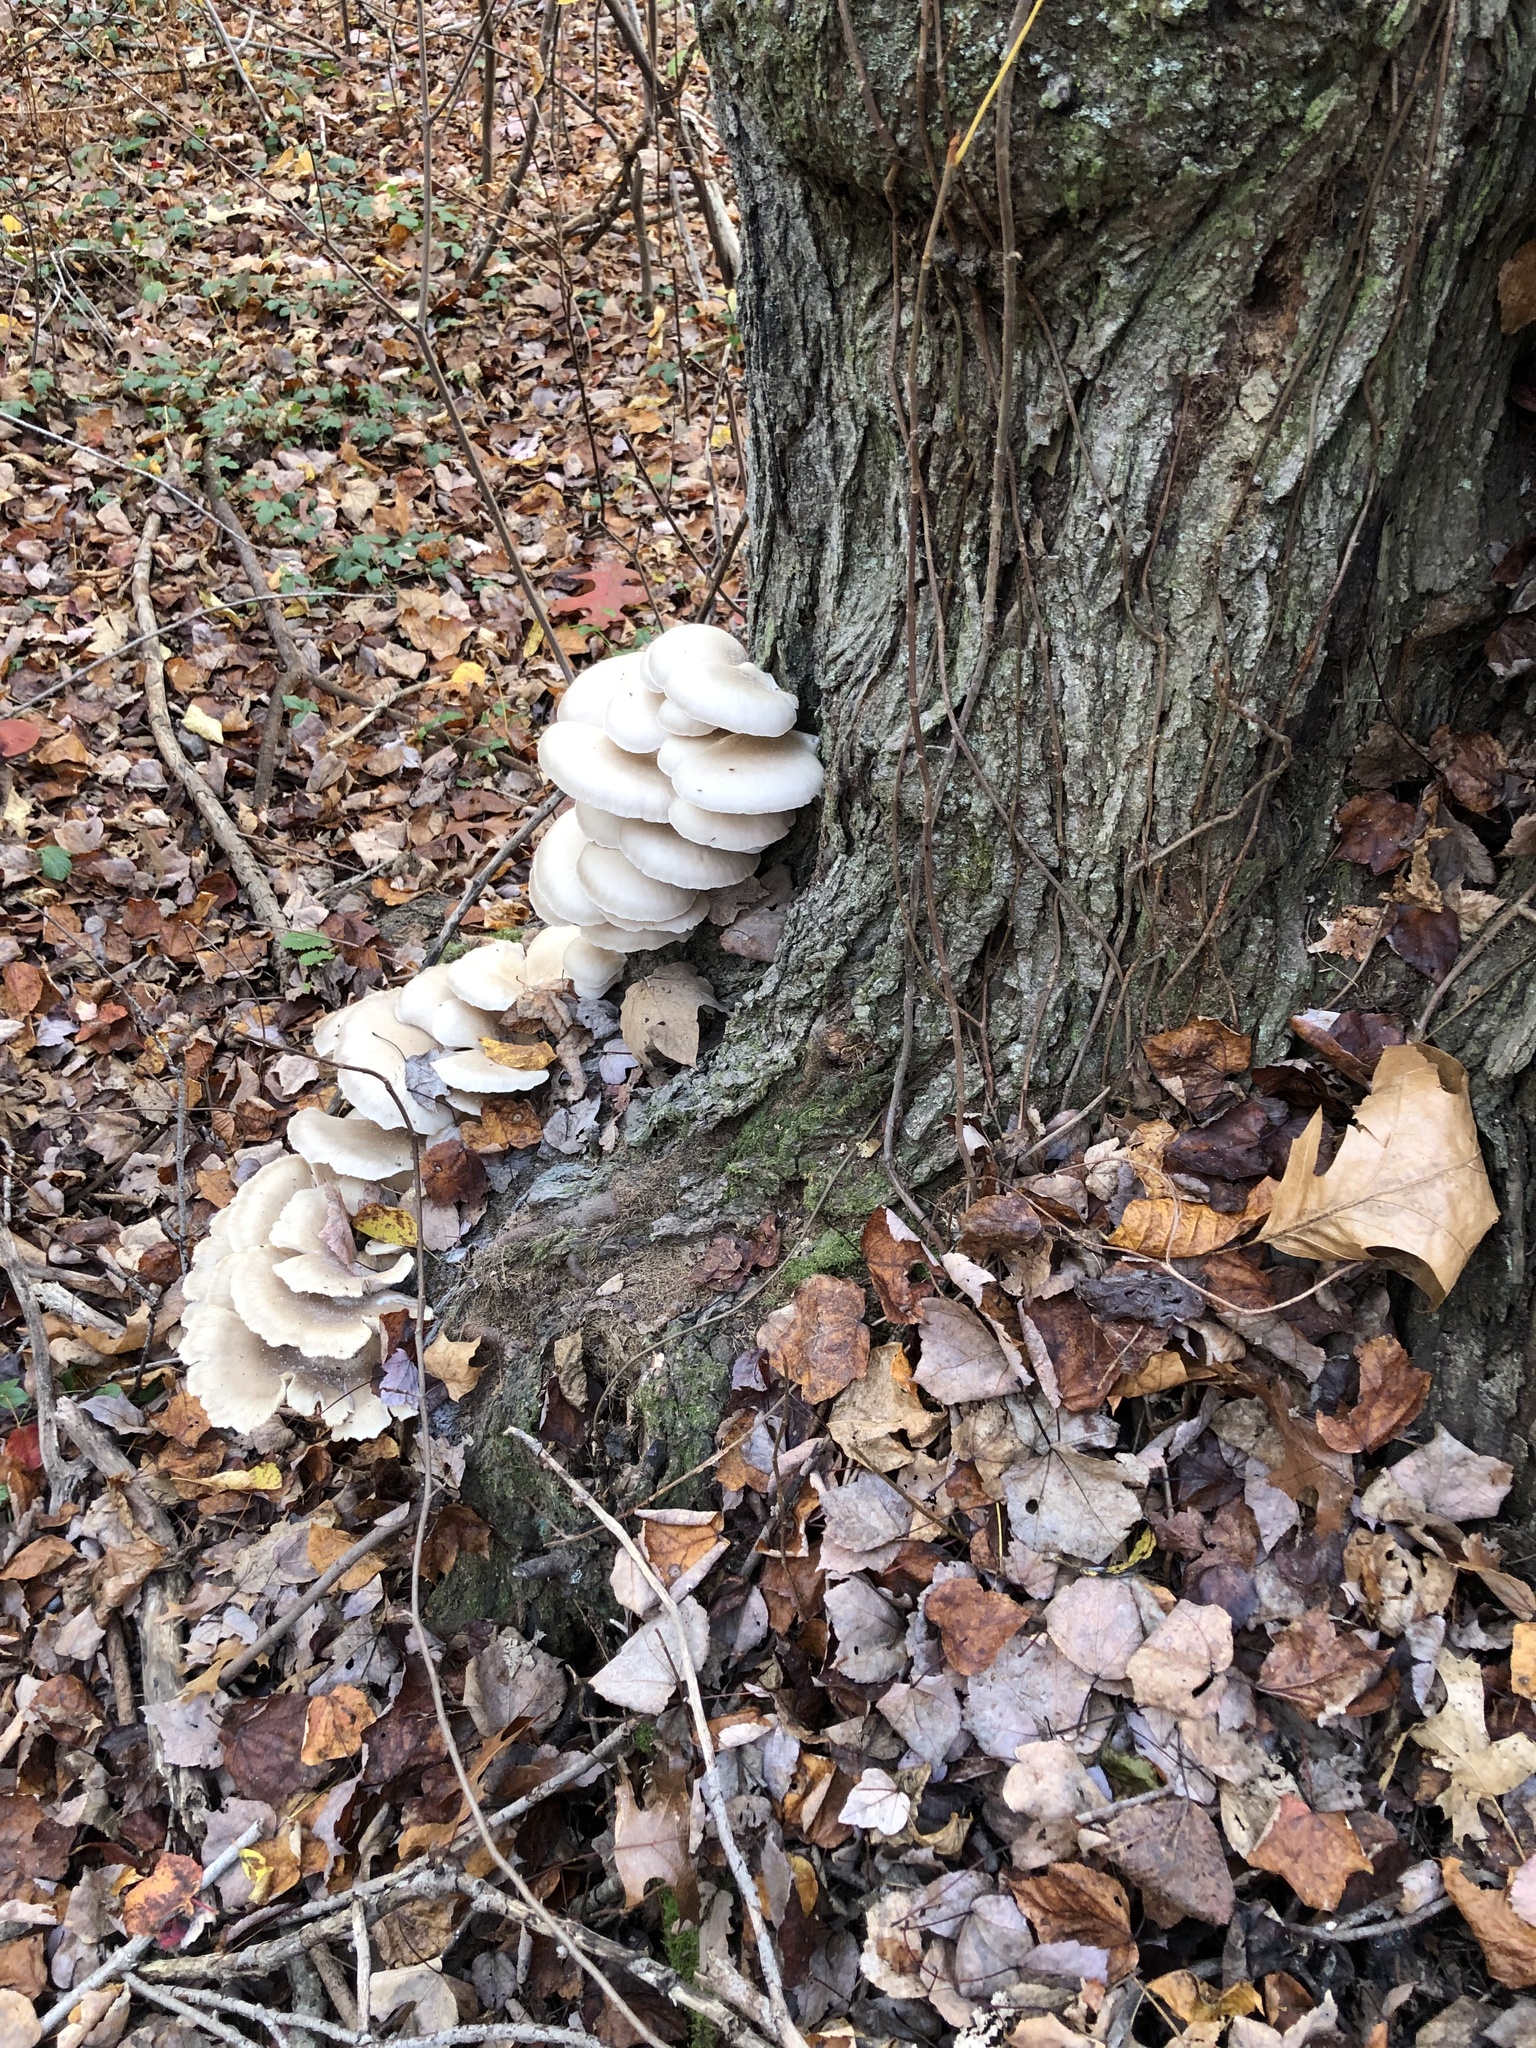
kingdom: Fungi
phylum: Basidiomycota
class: Agaricomycetes
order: Agaricales
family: Pleurotaceae
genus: Pleurotus
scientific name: Pleurotus ostreatus
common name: Oyster mushroom
